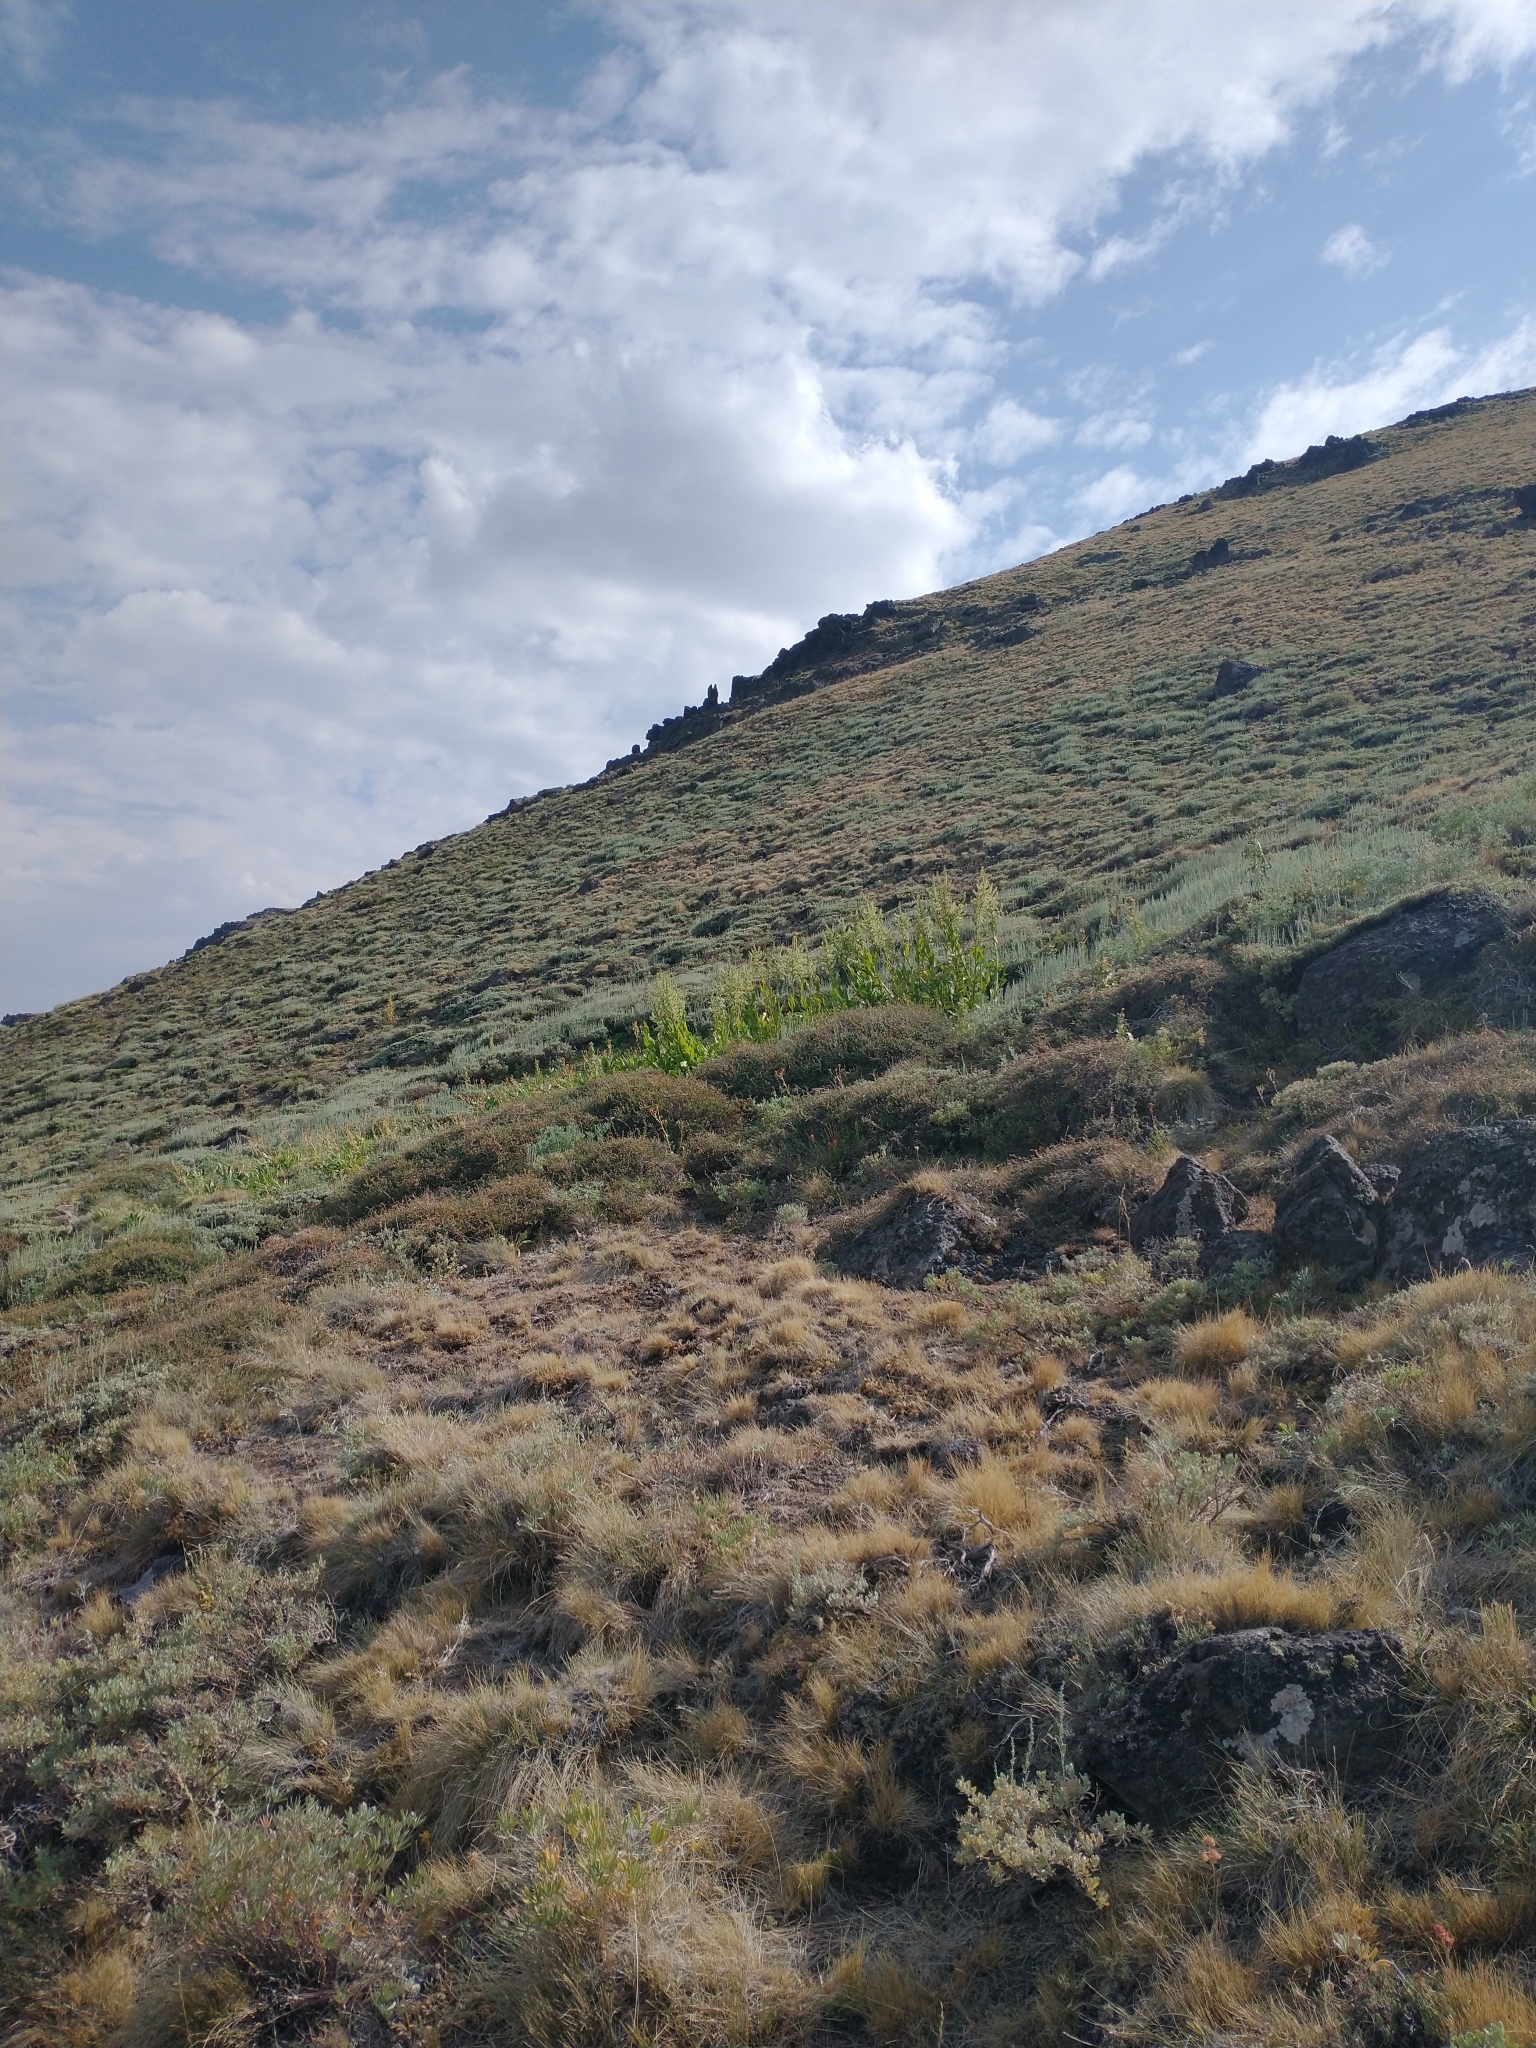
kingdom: Plantae
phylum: Tracheophyta
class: Liliopsida
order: Liliales
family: Melanthiaceae
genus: Veratrum
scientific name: Veratrum californicum
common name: California veratrum
